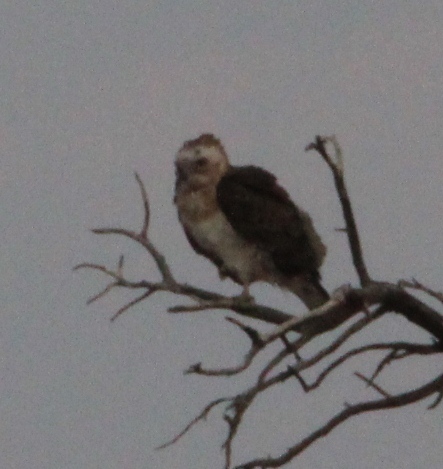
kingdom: Animalia
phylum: Chordata
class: Aves
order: Accipitriformes
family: Accipitridae
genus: Circaetus
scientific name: Circaetus pectoralis
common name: Black-chested snake eagle
